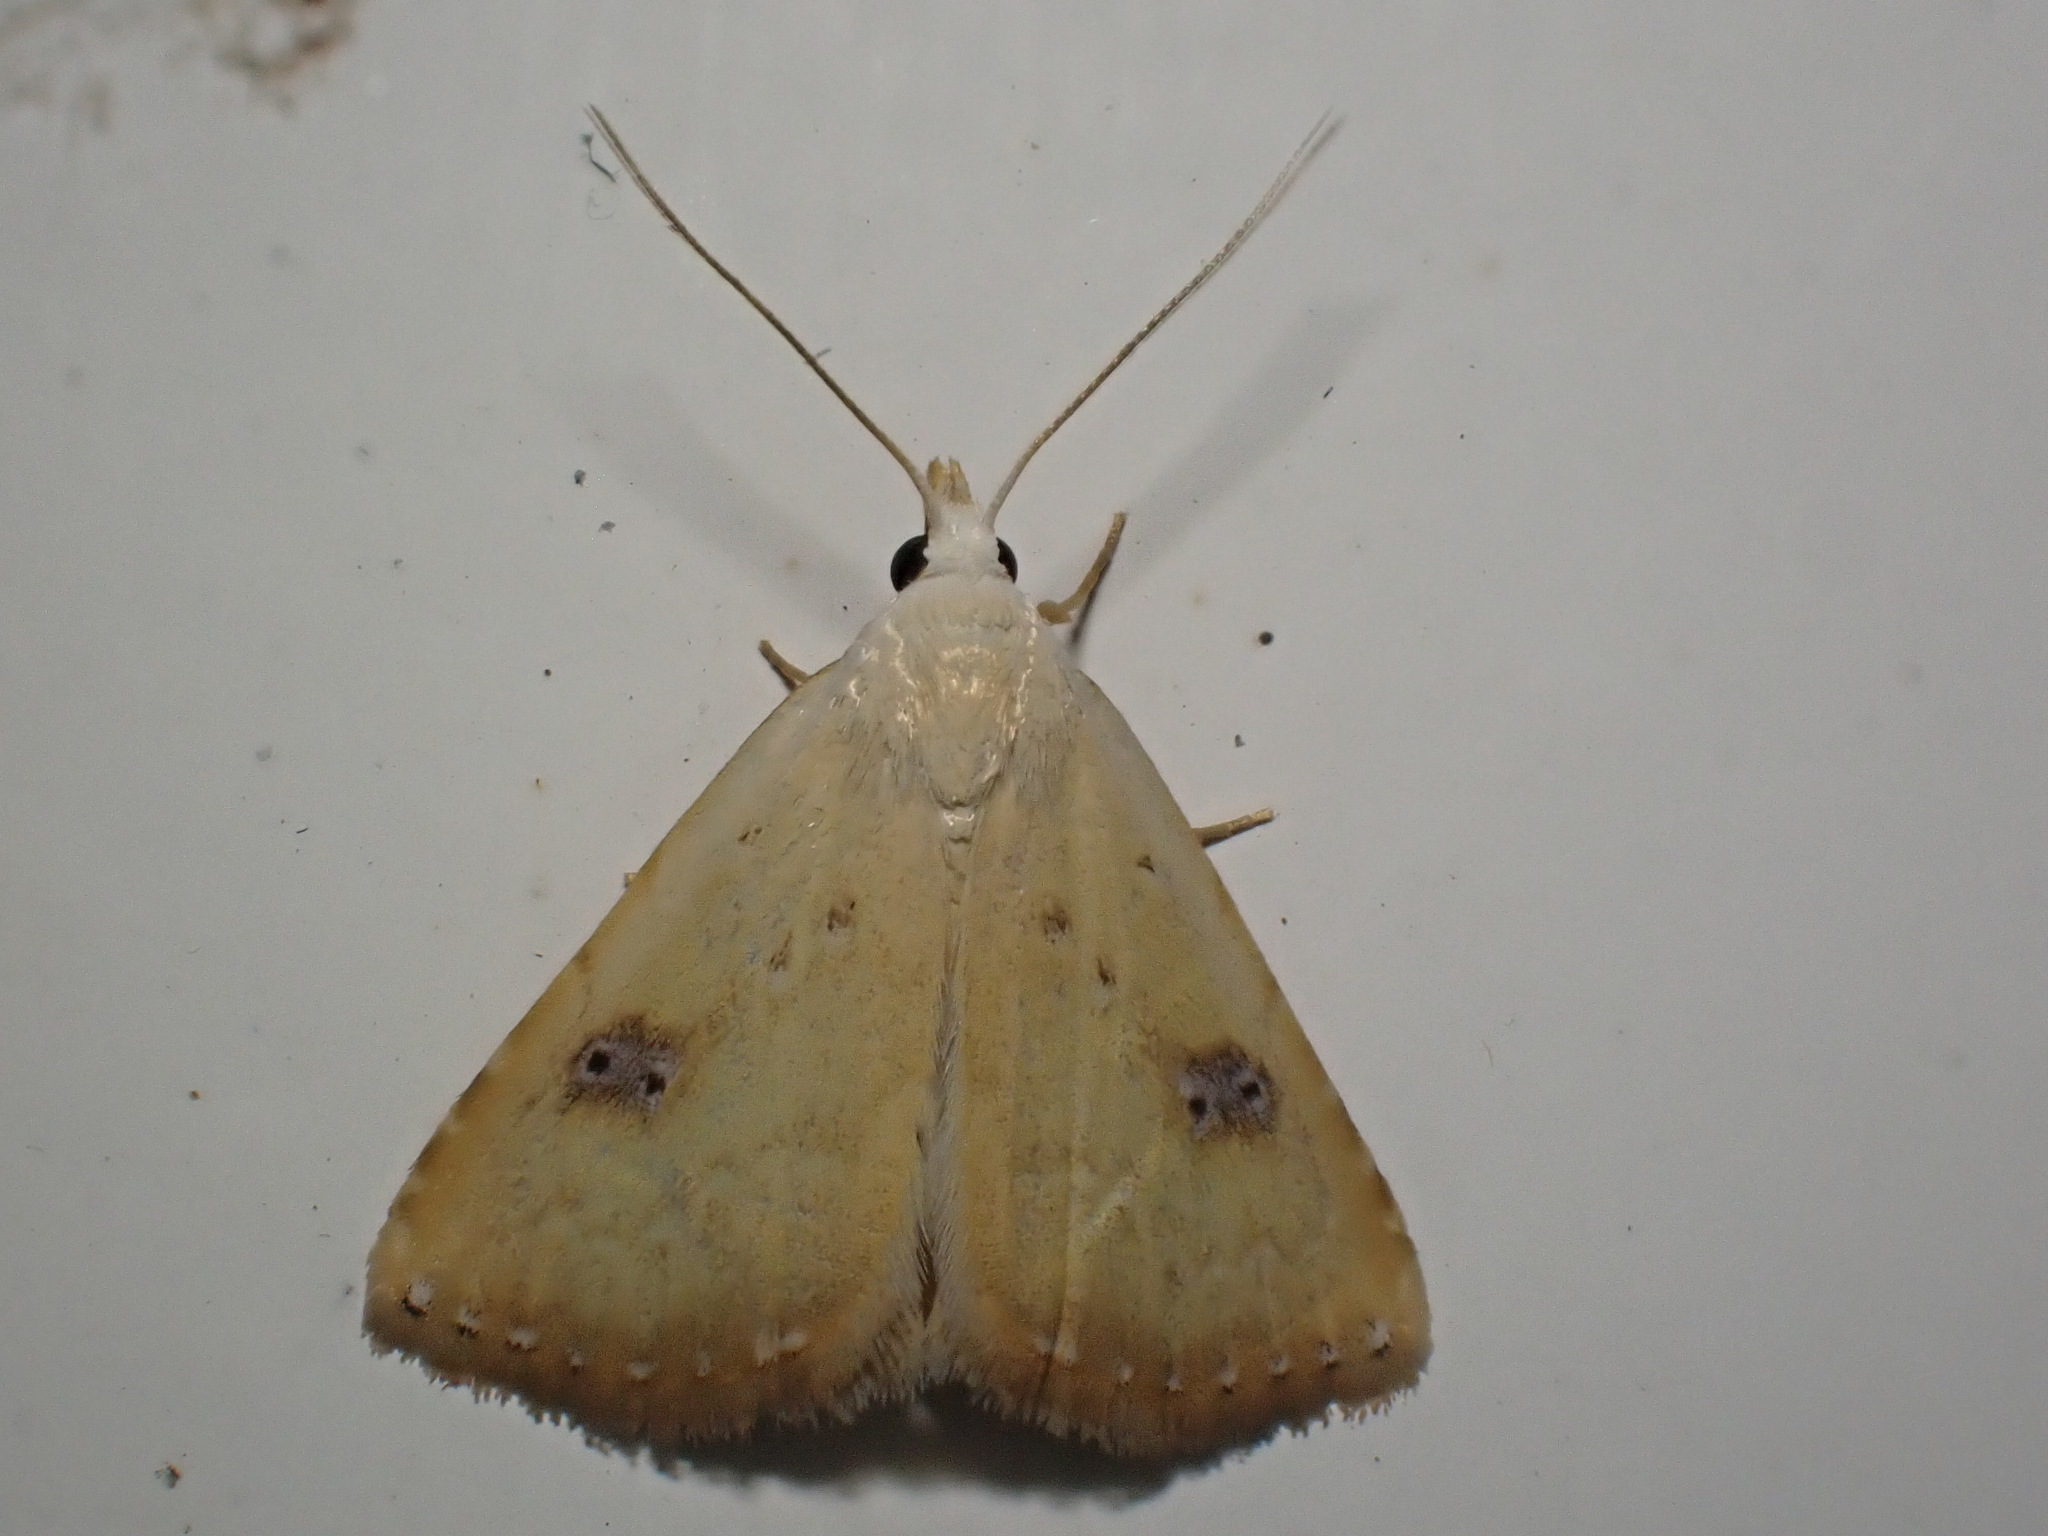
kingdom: Animalia
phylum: Arthropoda
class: Insecta
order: Lepidoptera
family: Erebidae
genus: Rivula
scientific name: Rivula sericealis
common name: Straw dot
